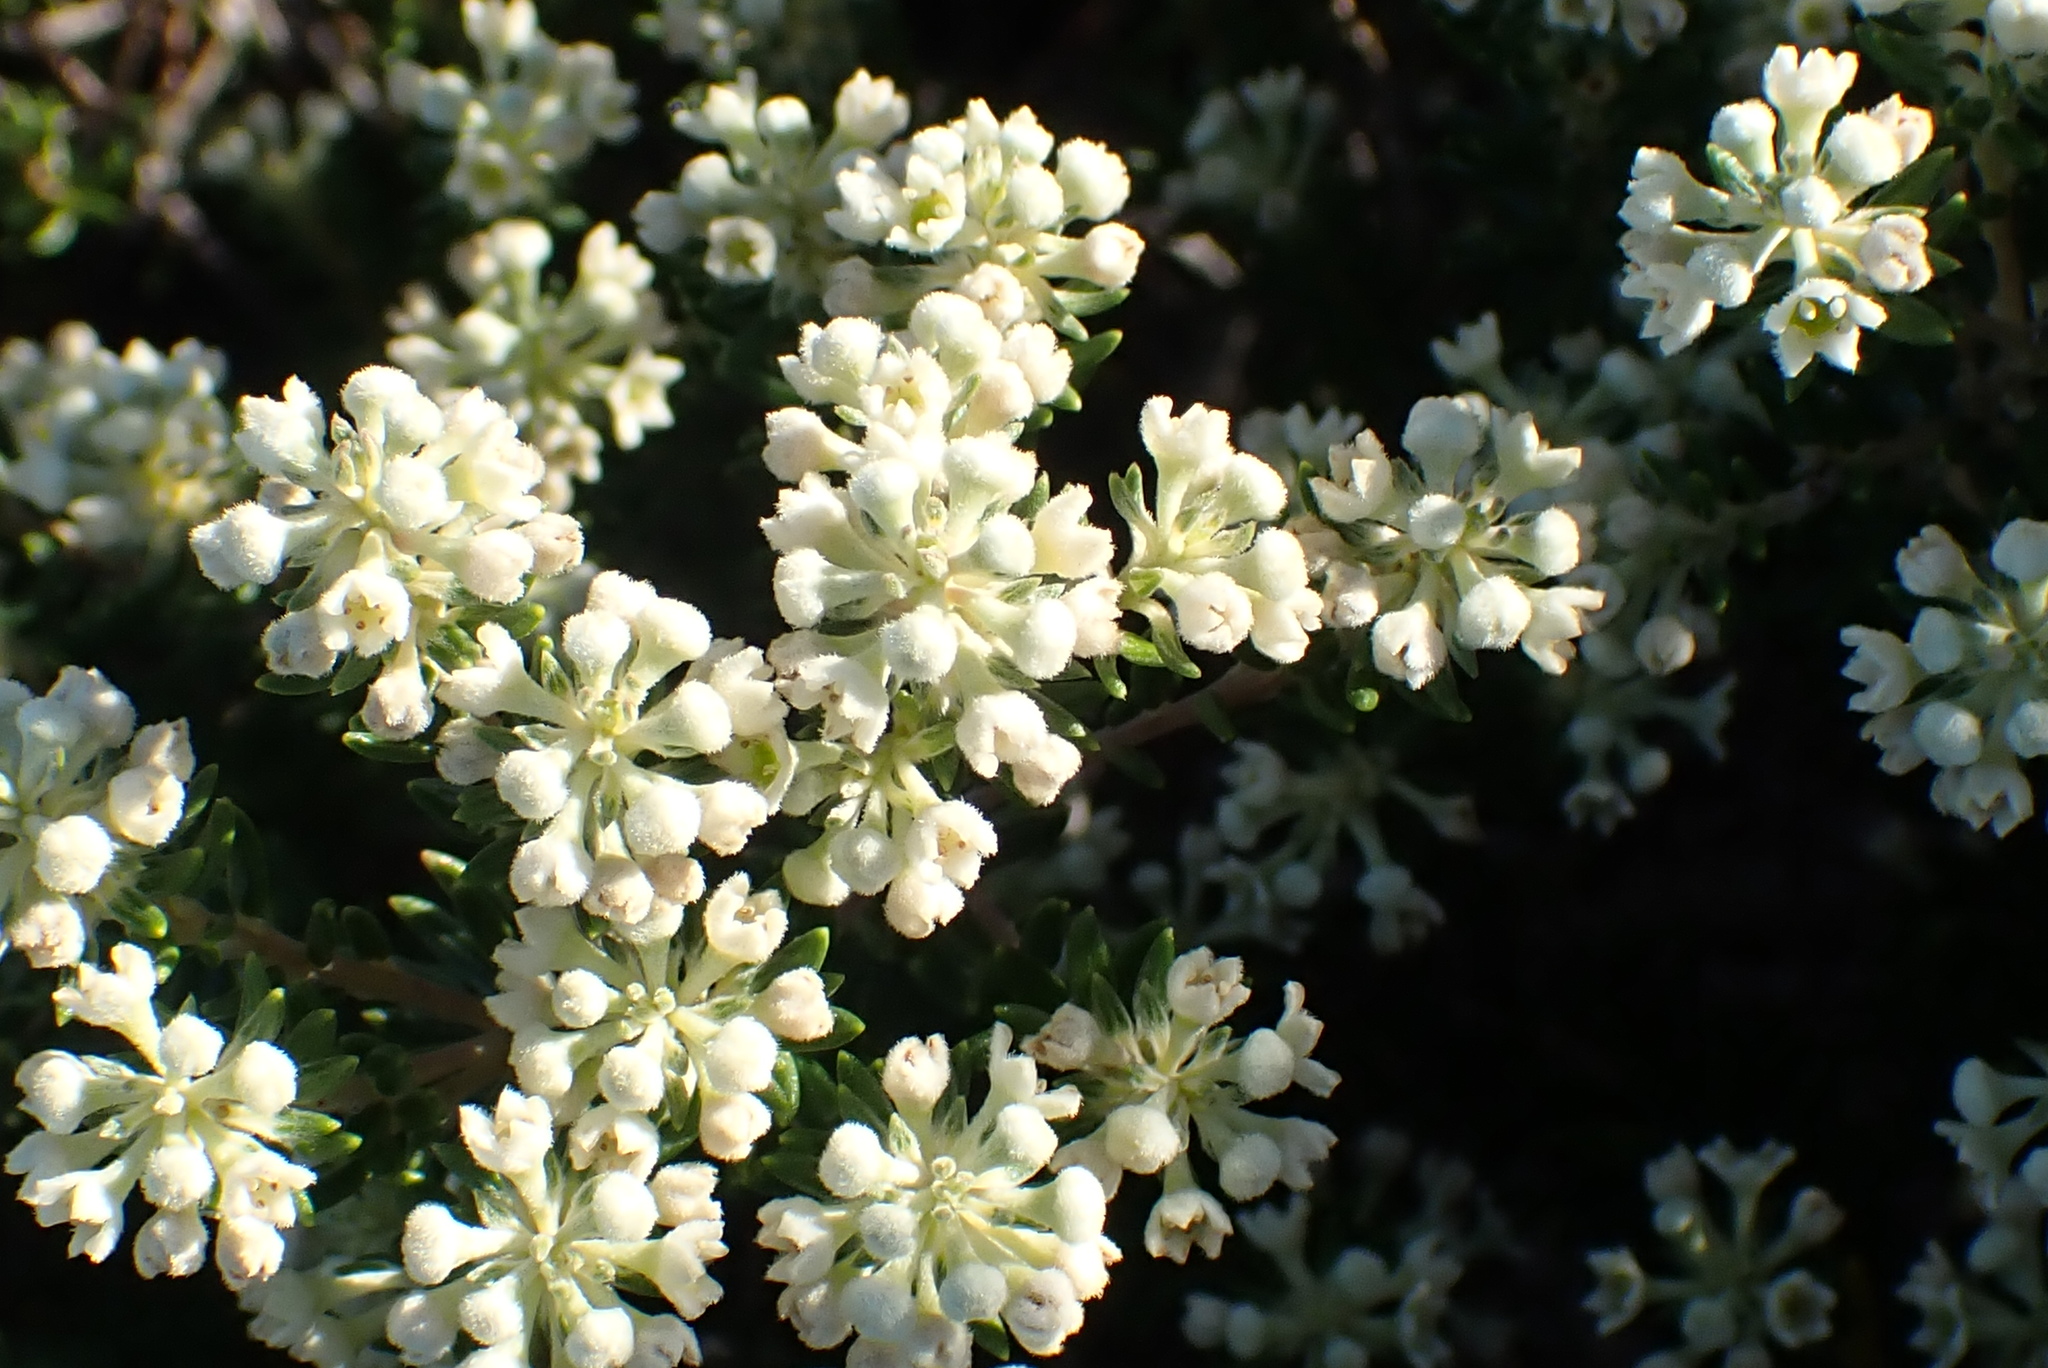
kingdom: Plantae
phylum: Tracheophyta
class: Magnoliopsida
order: Rosales
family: Rhamnaceae
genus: Phylica
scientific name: Phylica axillaris
